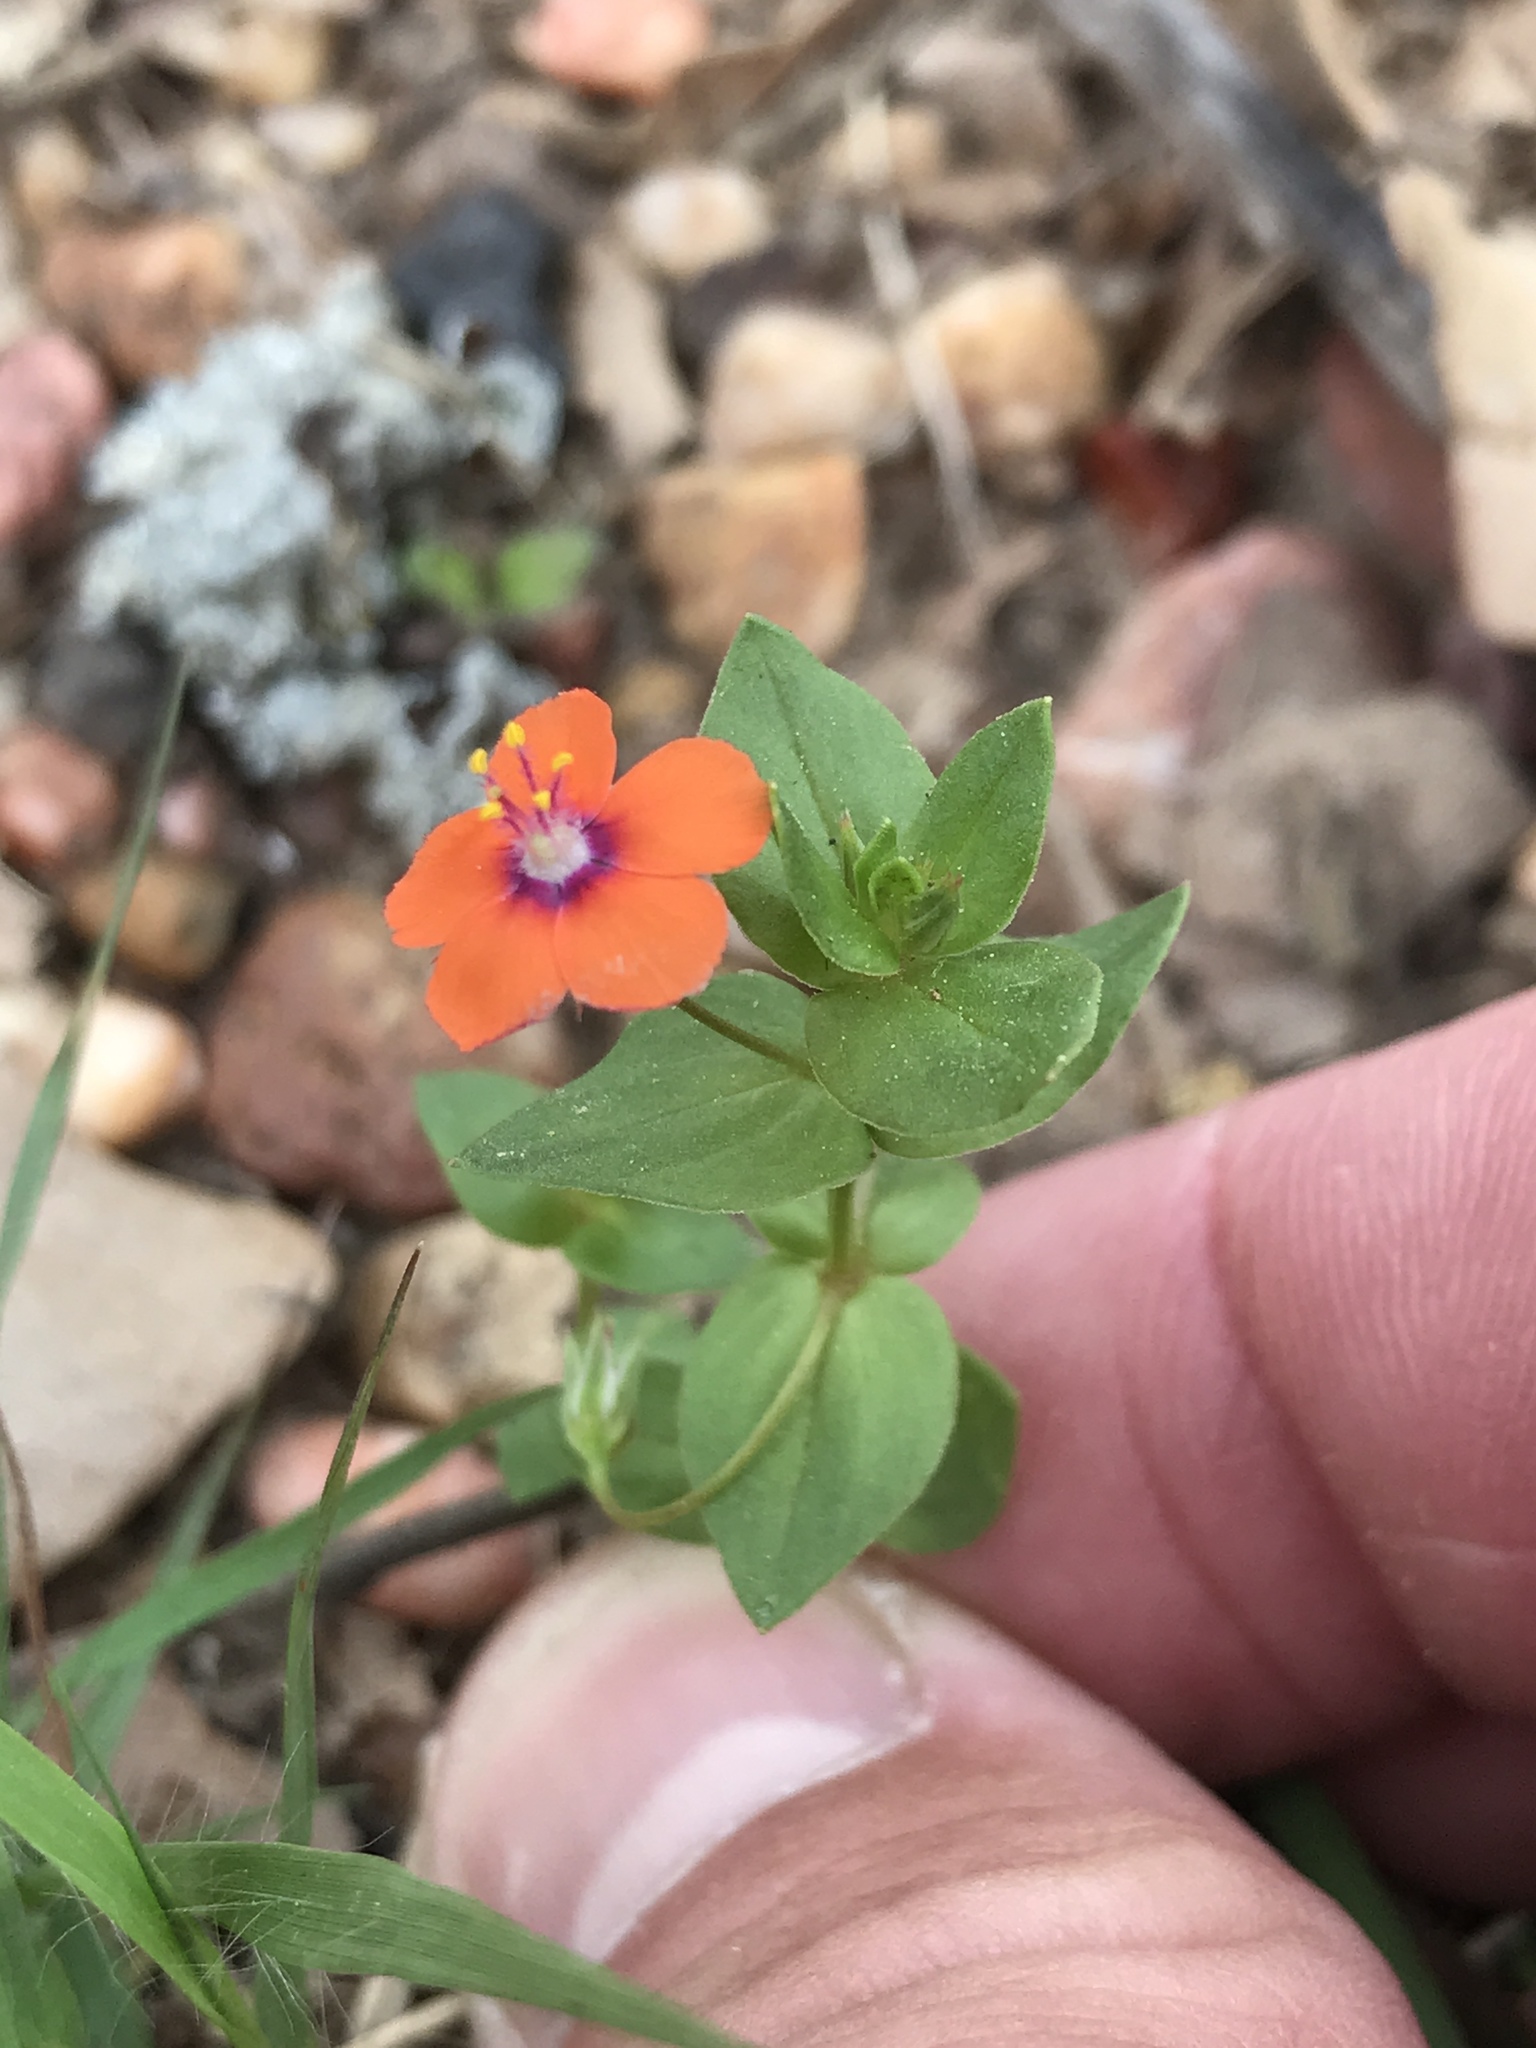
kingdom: Plantae
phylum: Tracheophyta
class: Magnoliopsida
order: Ericales
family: Primulaceae
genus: Lysimachia
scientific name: Lysimachia arvensis
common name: Scarlet pimpernel
